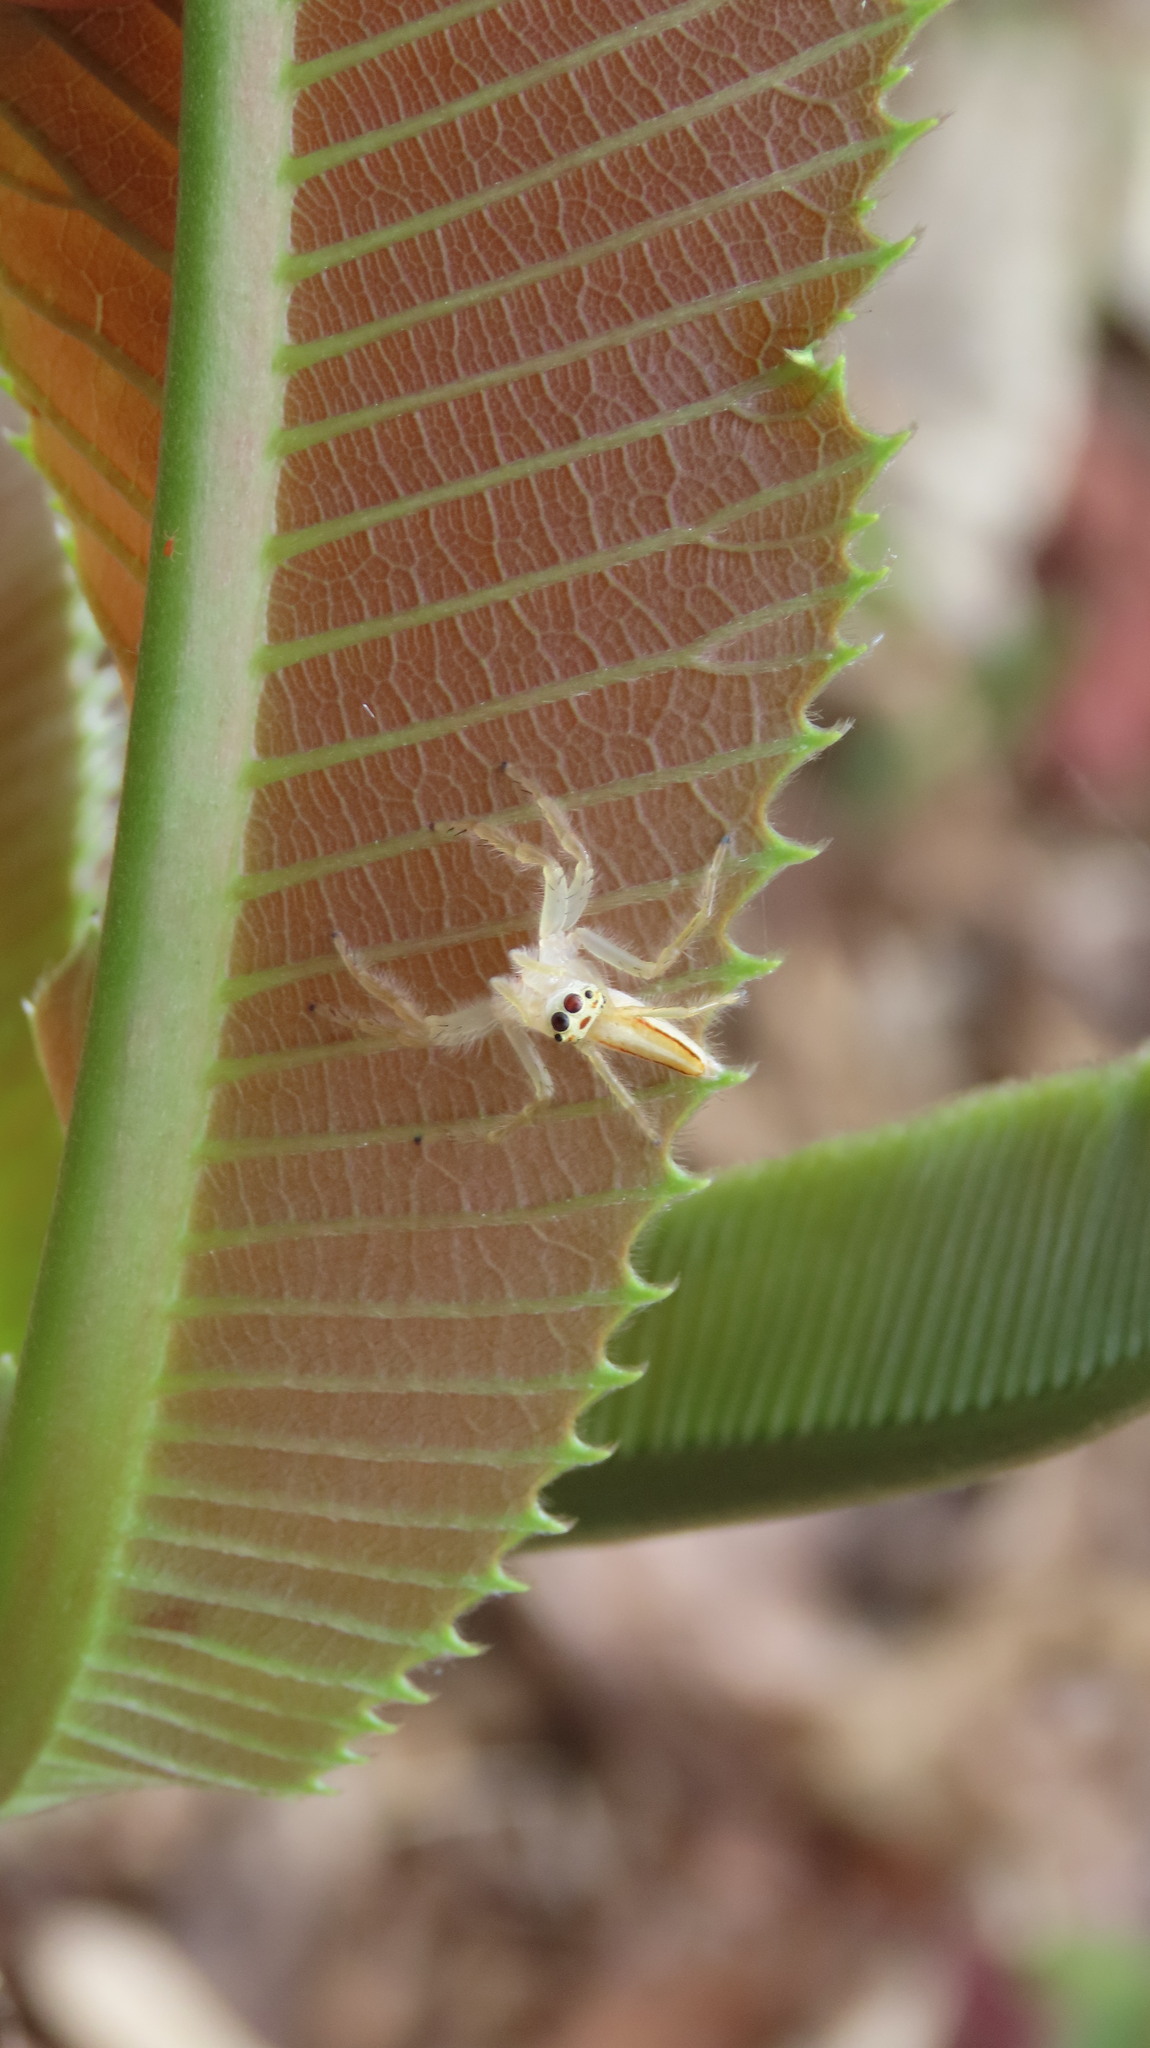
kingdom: Animalia
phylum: Arthropoda
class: Arachnida
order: Araneae
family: Salticidae
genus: Telamonia
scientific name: Telamonia dimidiata
